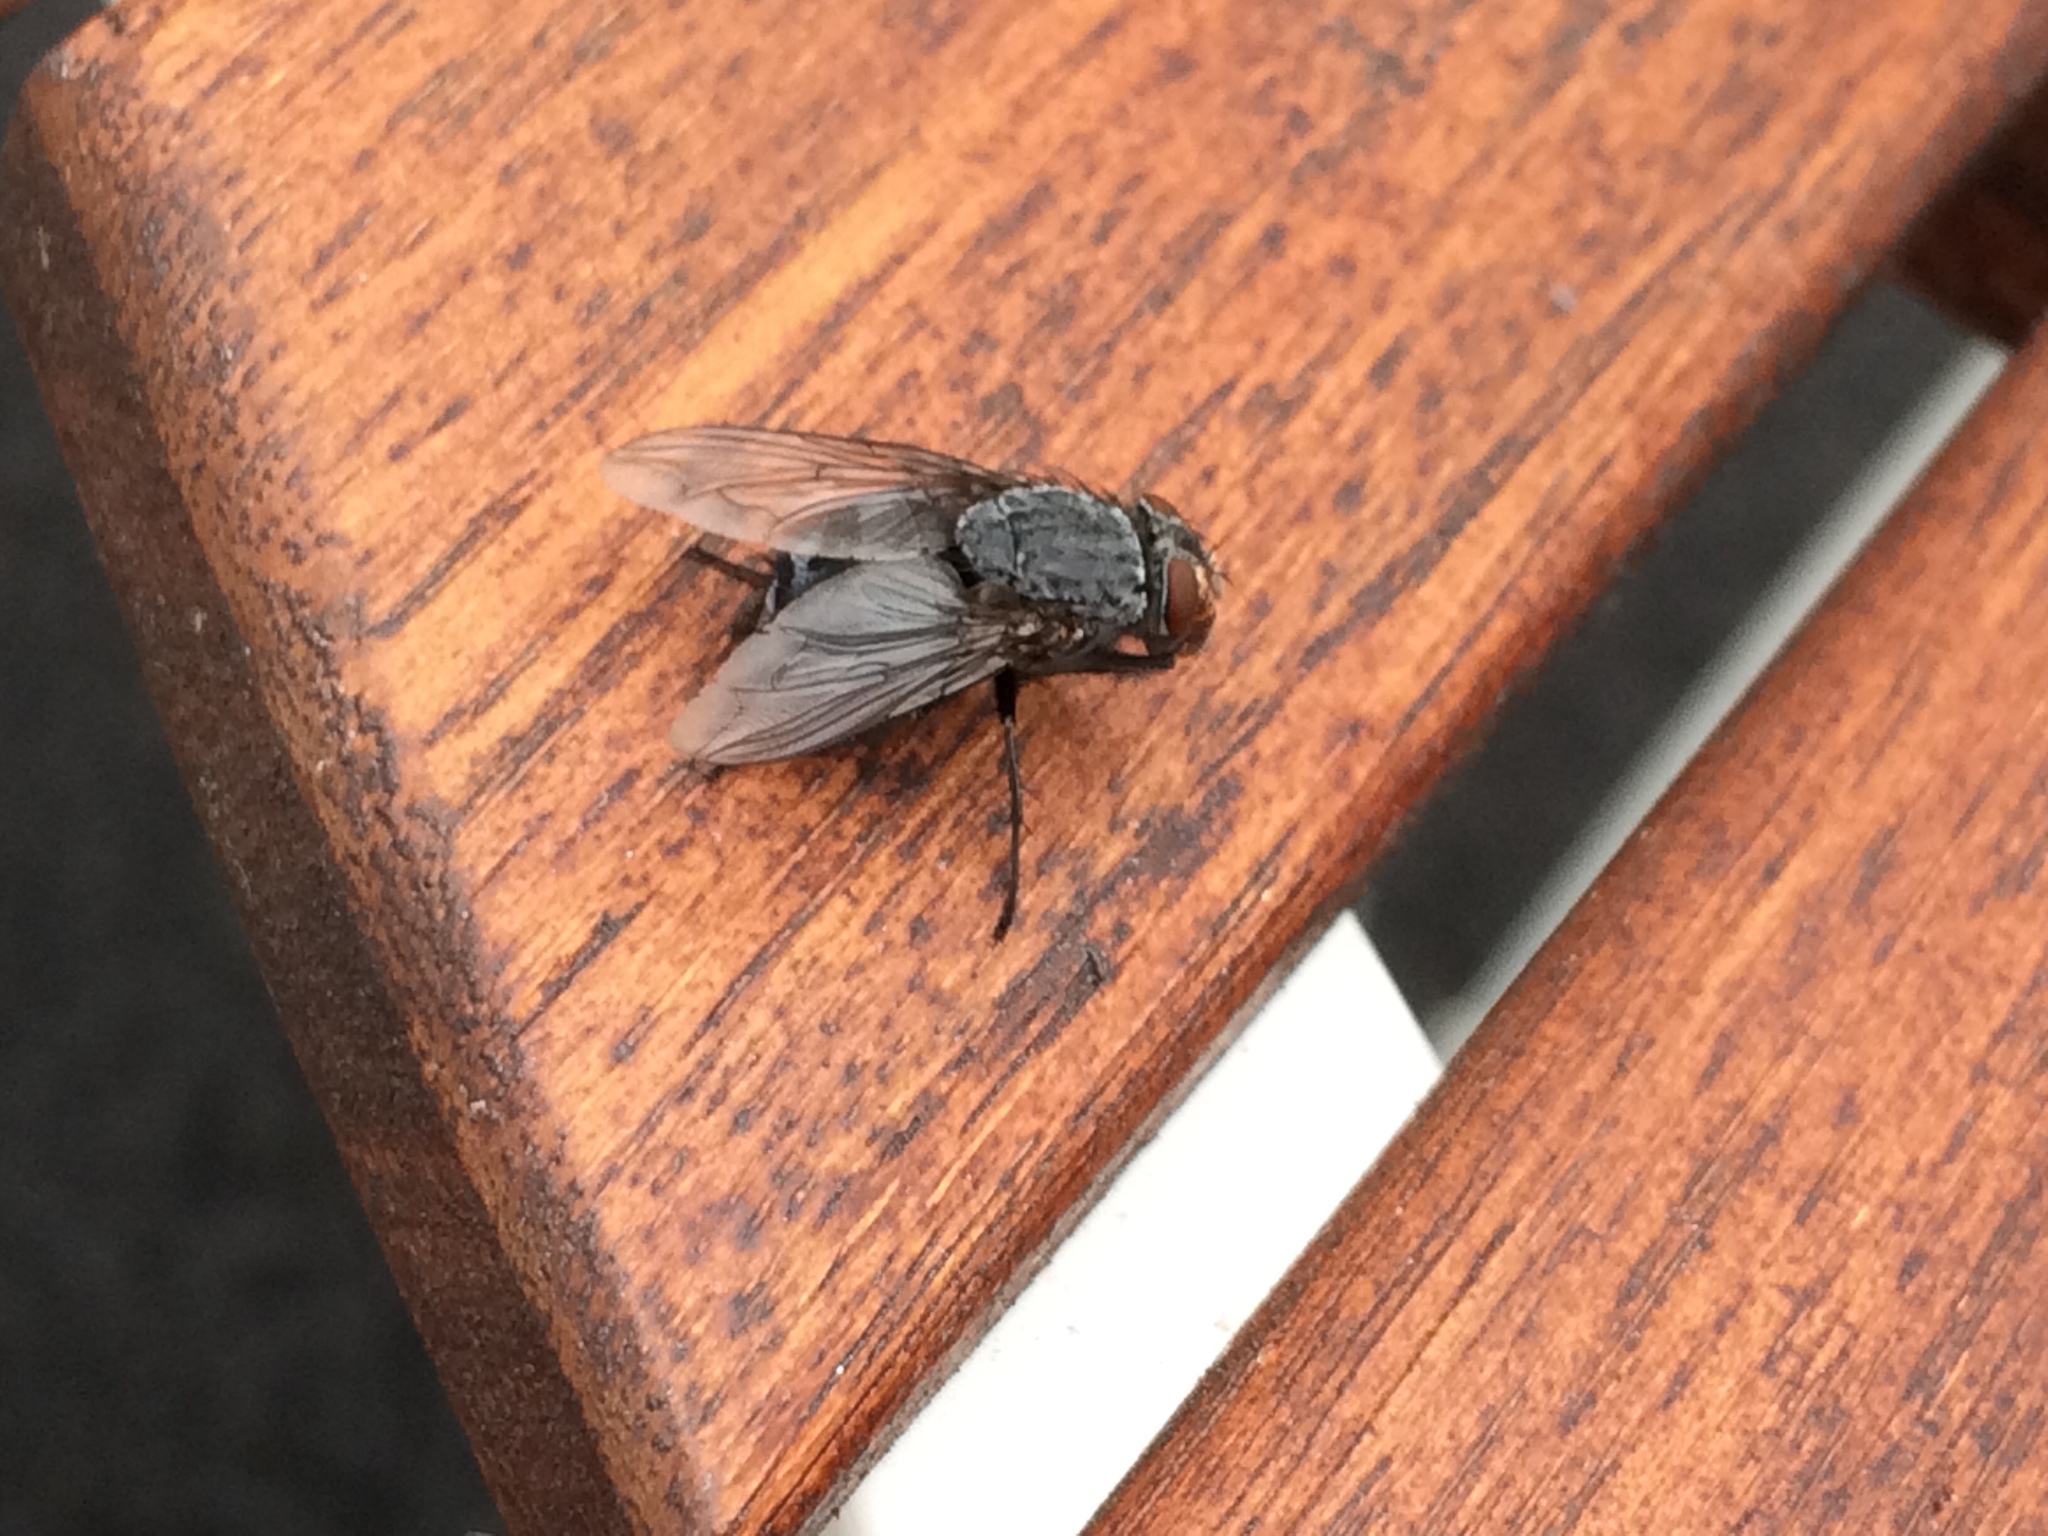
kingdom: Animalia
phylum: Arthropoda
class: Insecta
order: Diptera
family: Calliphoridae
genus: Calliphora
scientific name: Calliphora vicina
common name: Common blow flie
